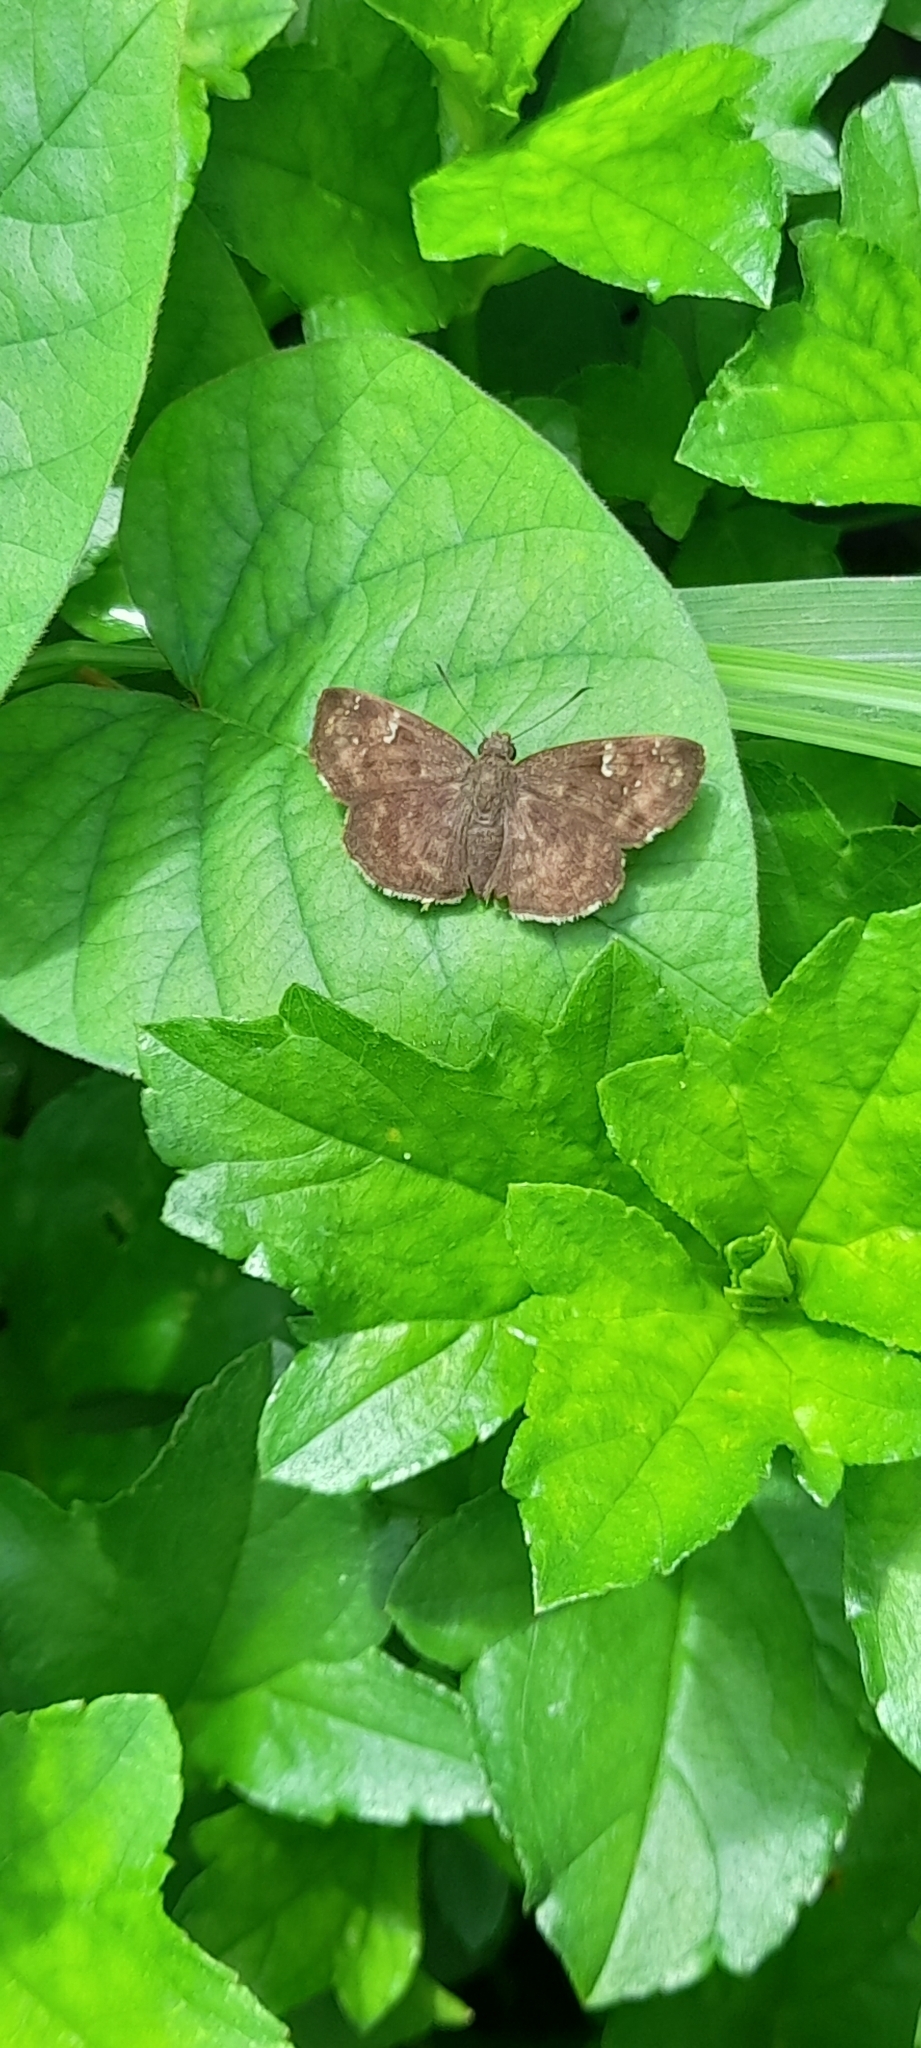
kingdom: Animalia
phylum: Arthropoda
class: Insecta
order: Lepidoptera
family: Hesperiidae
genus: Sarangesa
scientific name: Sarangesa dasahara
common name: Common small flat
